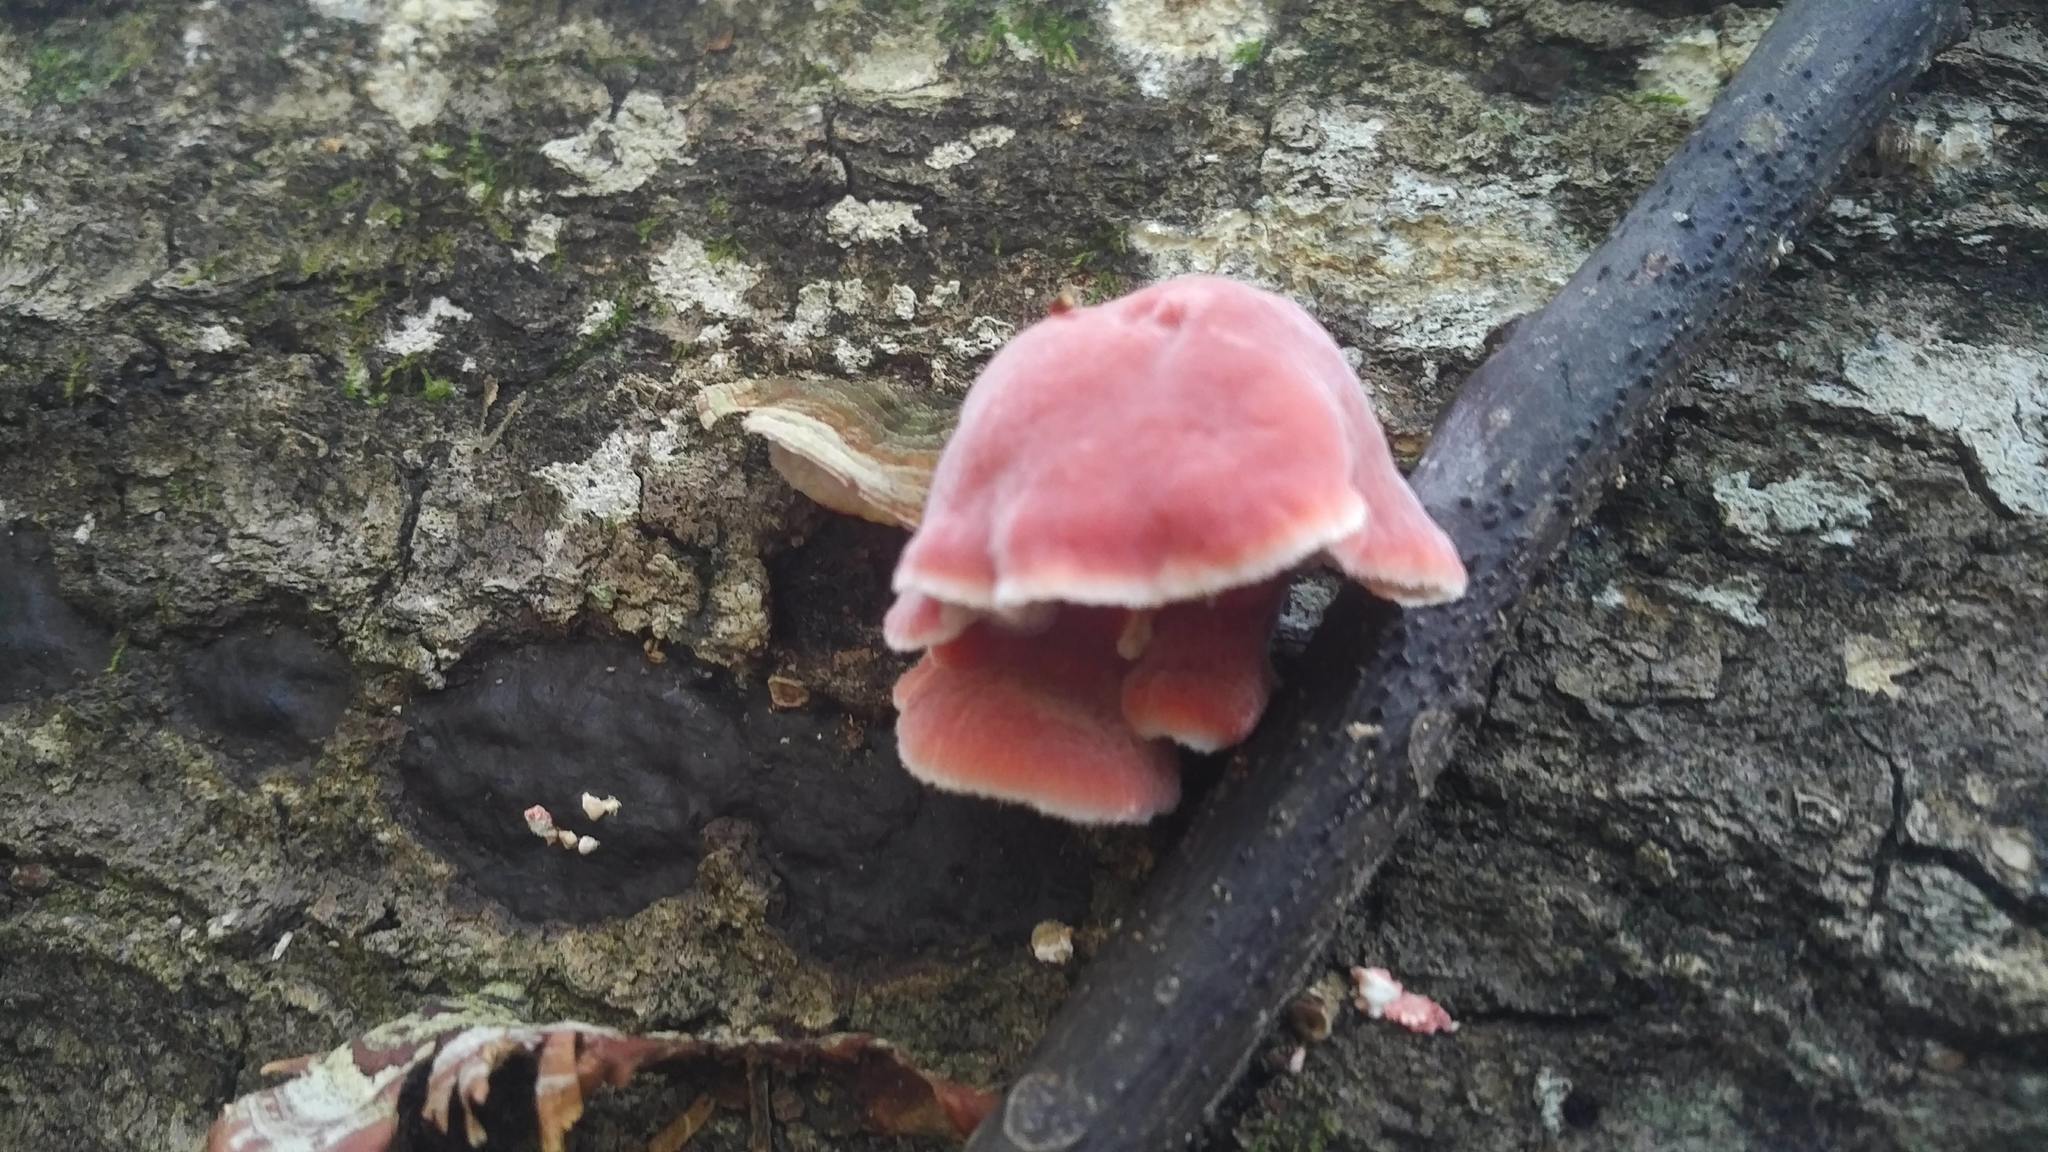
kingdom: Fungi
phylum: Basidiomycota
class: Agaricomycetes
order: Polyporales
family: Irpicaceae
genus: Byssomerulius
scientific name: Byssomerulius incarnatus
